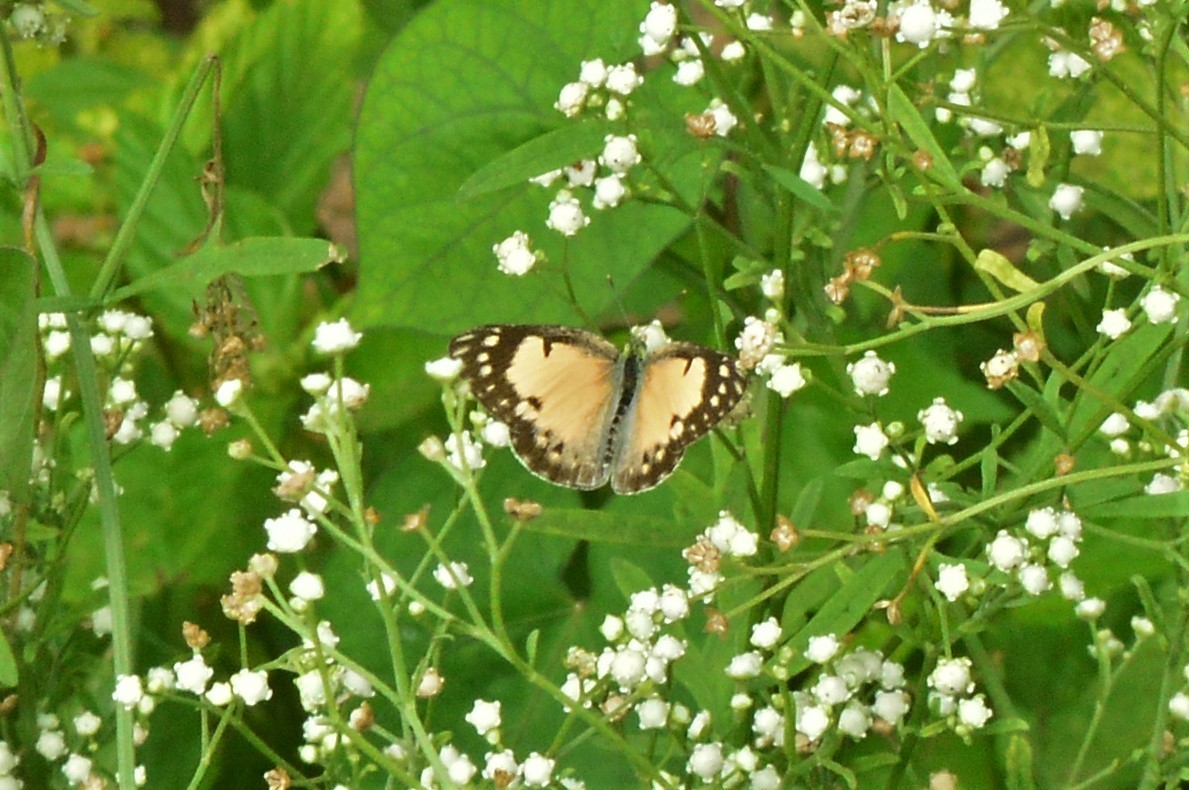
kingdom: Animalia
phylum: Arthropoda
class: Insecta
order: Lepidoptera
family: Pieridae
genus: Colotis
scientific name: Colotis amata
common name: Small salmon arab
